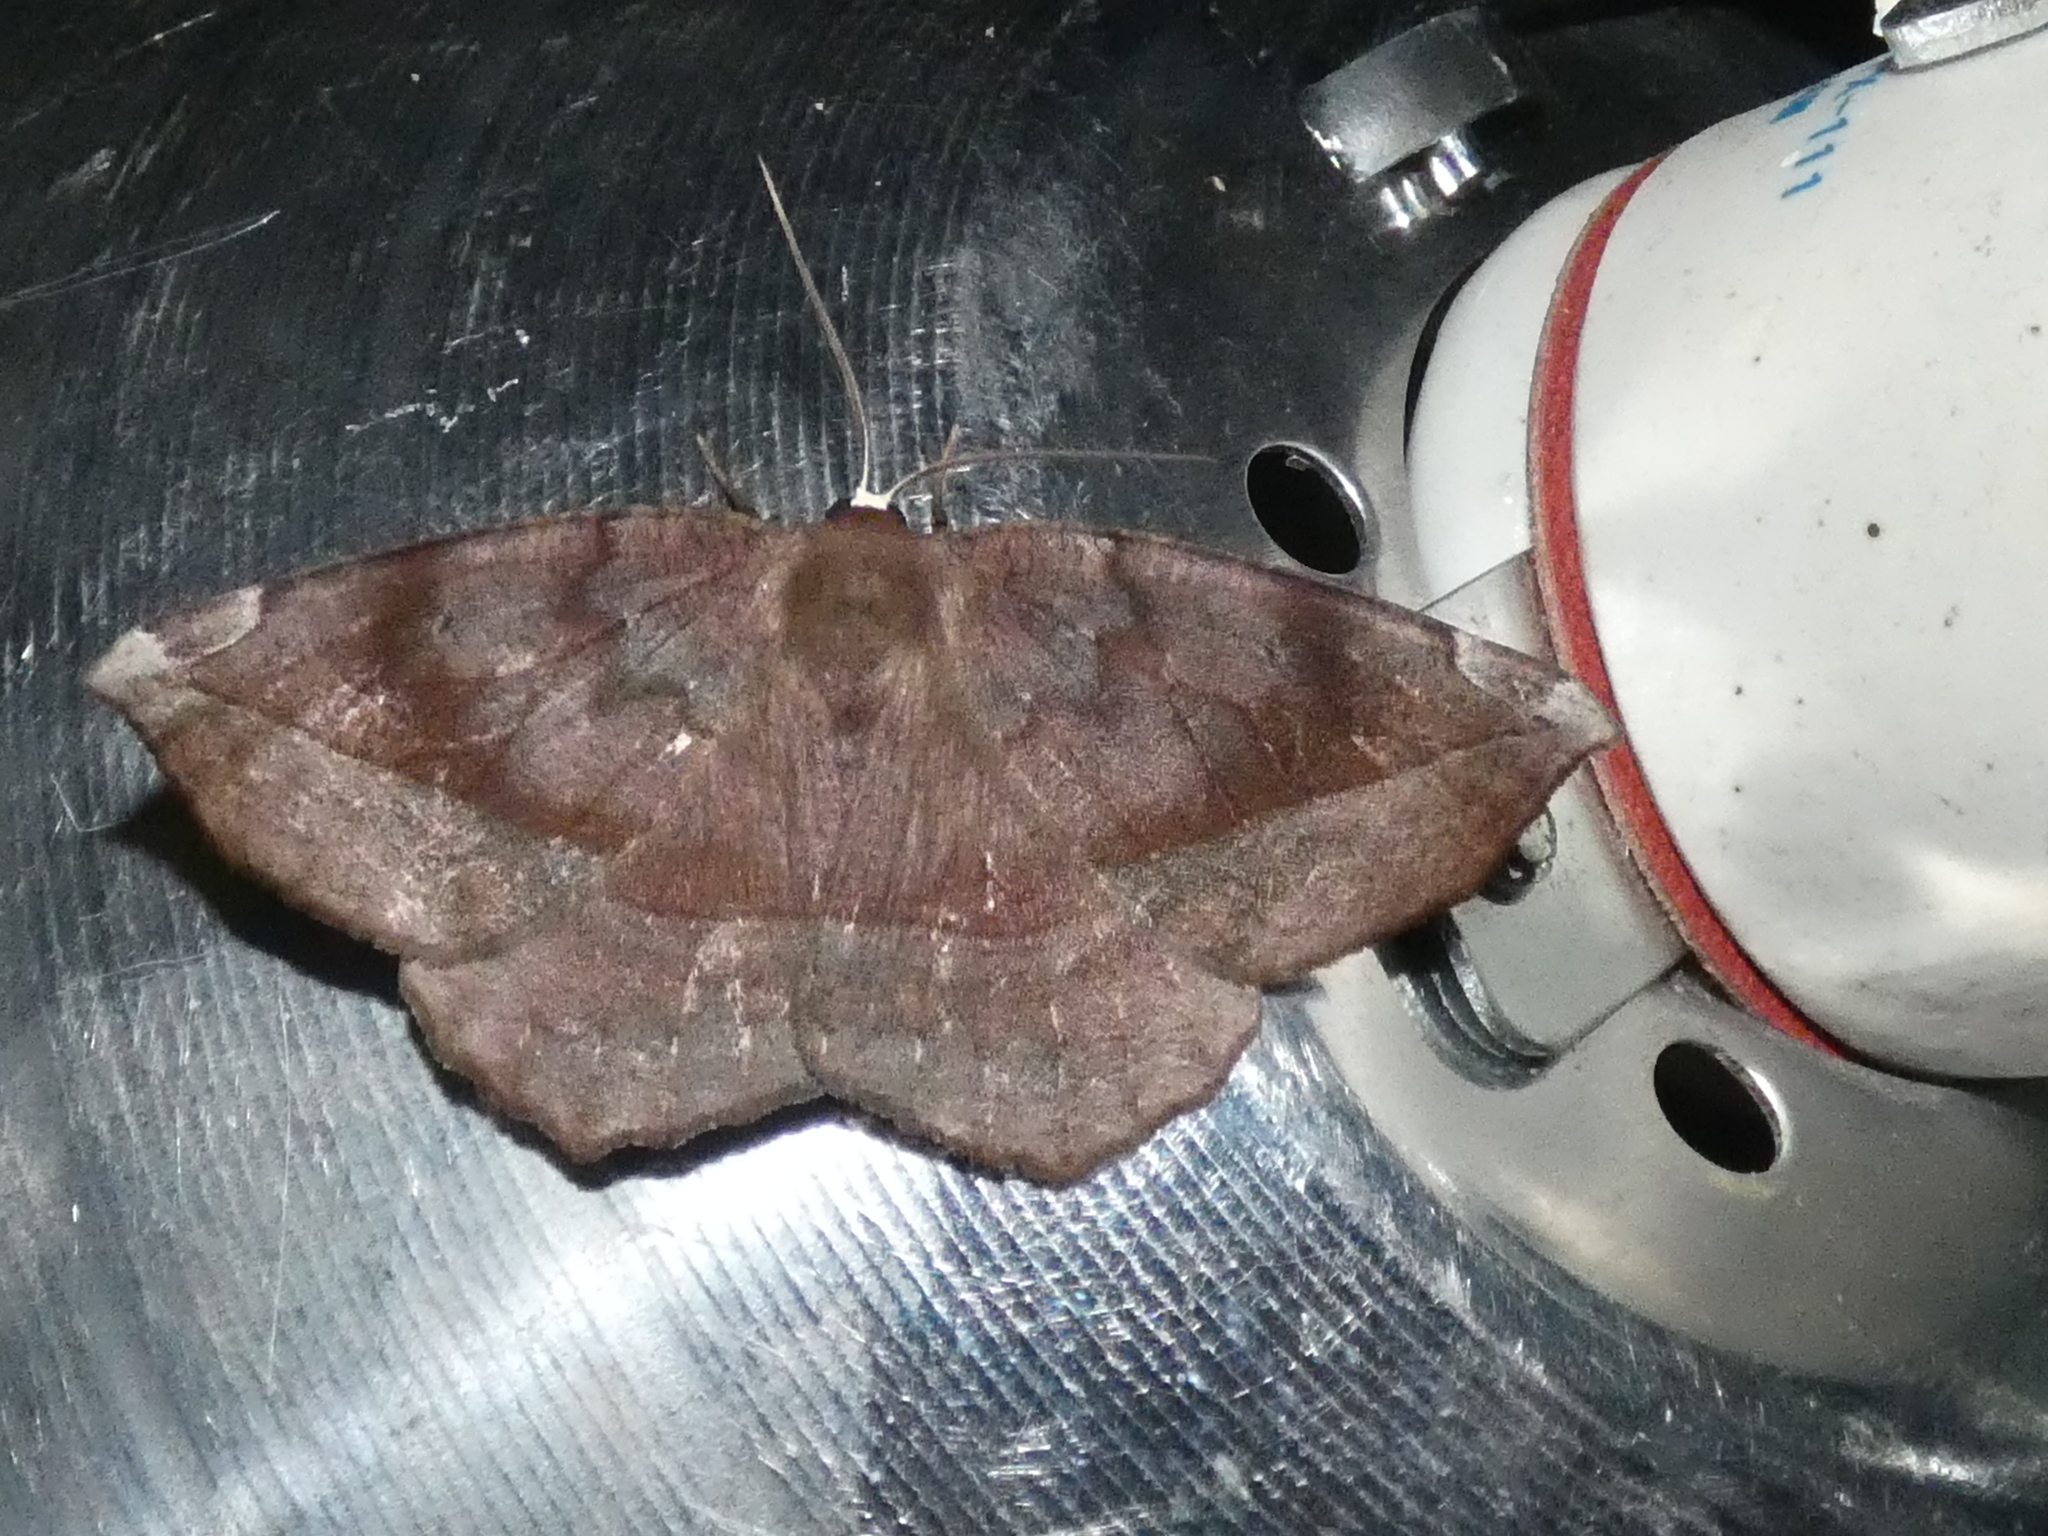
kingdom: Animalia
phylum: Arthropoda
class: Insecta
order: Lepidoptera
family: Geometridae
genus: Eutrapela
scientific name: Eutrapela clemataria
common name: Curved-toothed geometer
